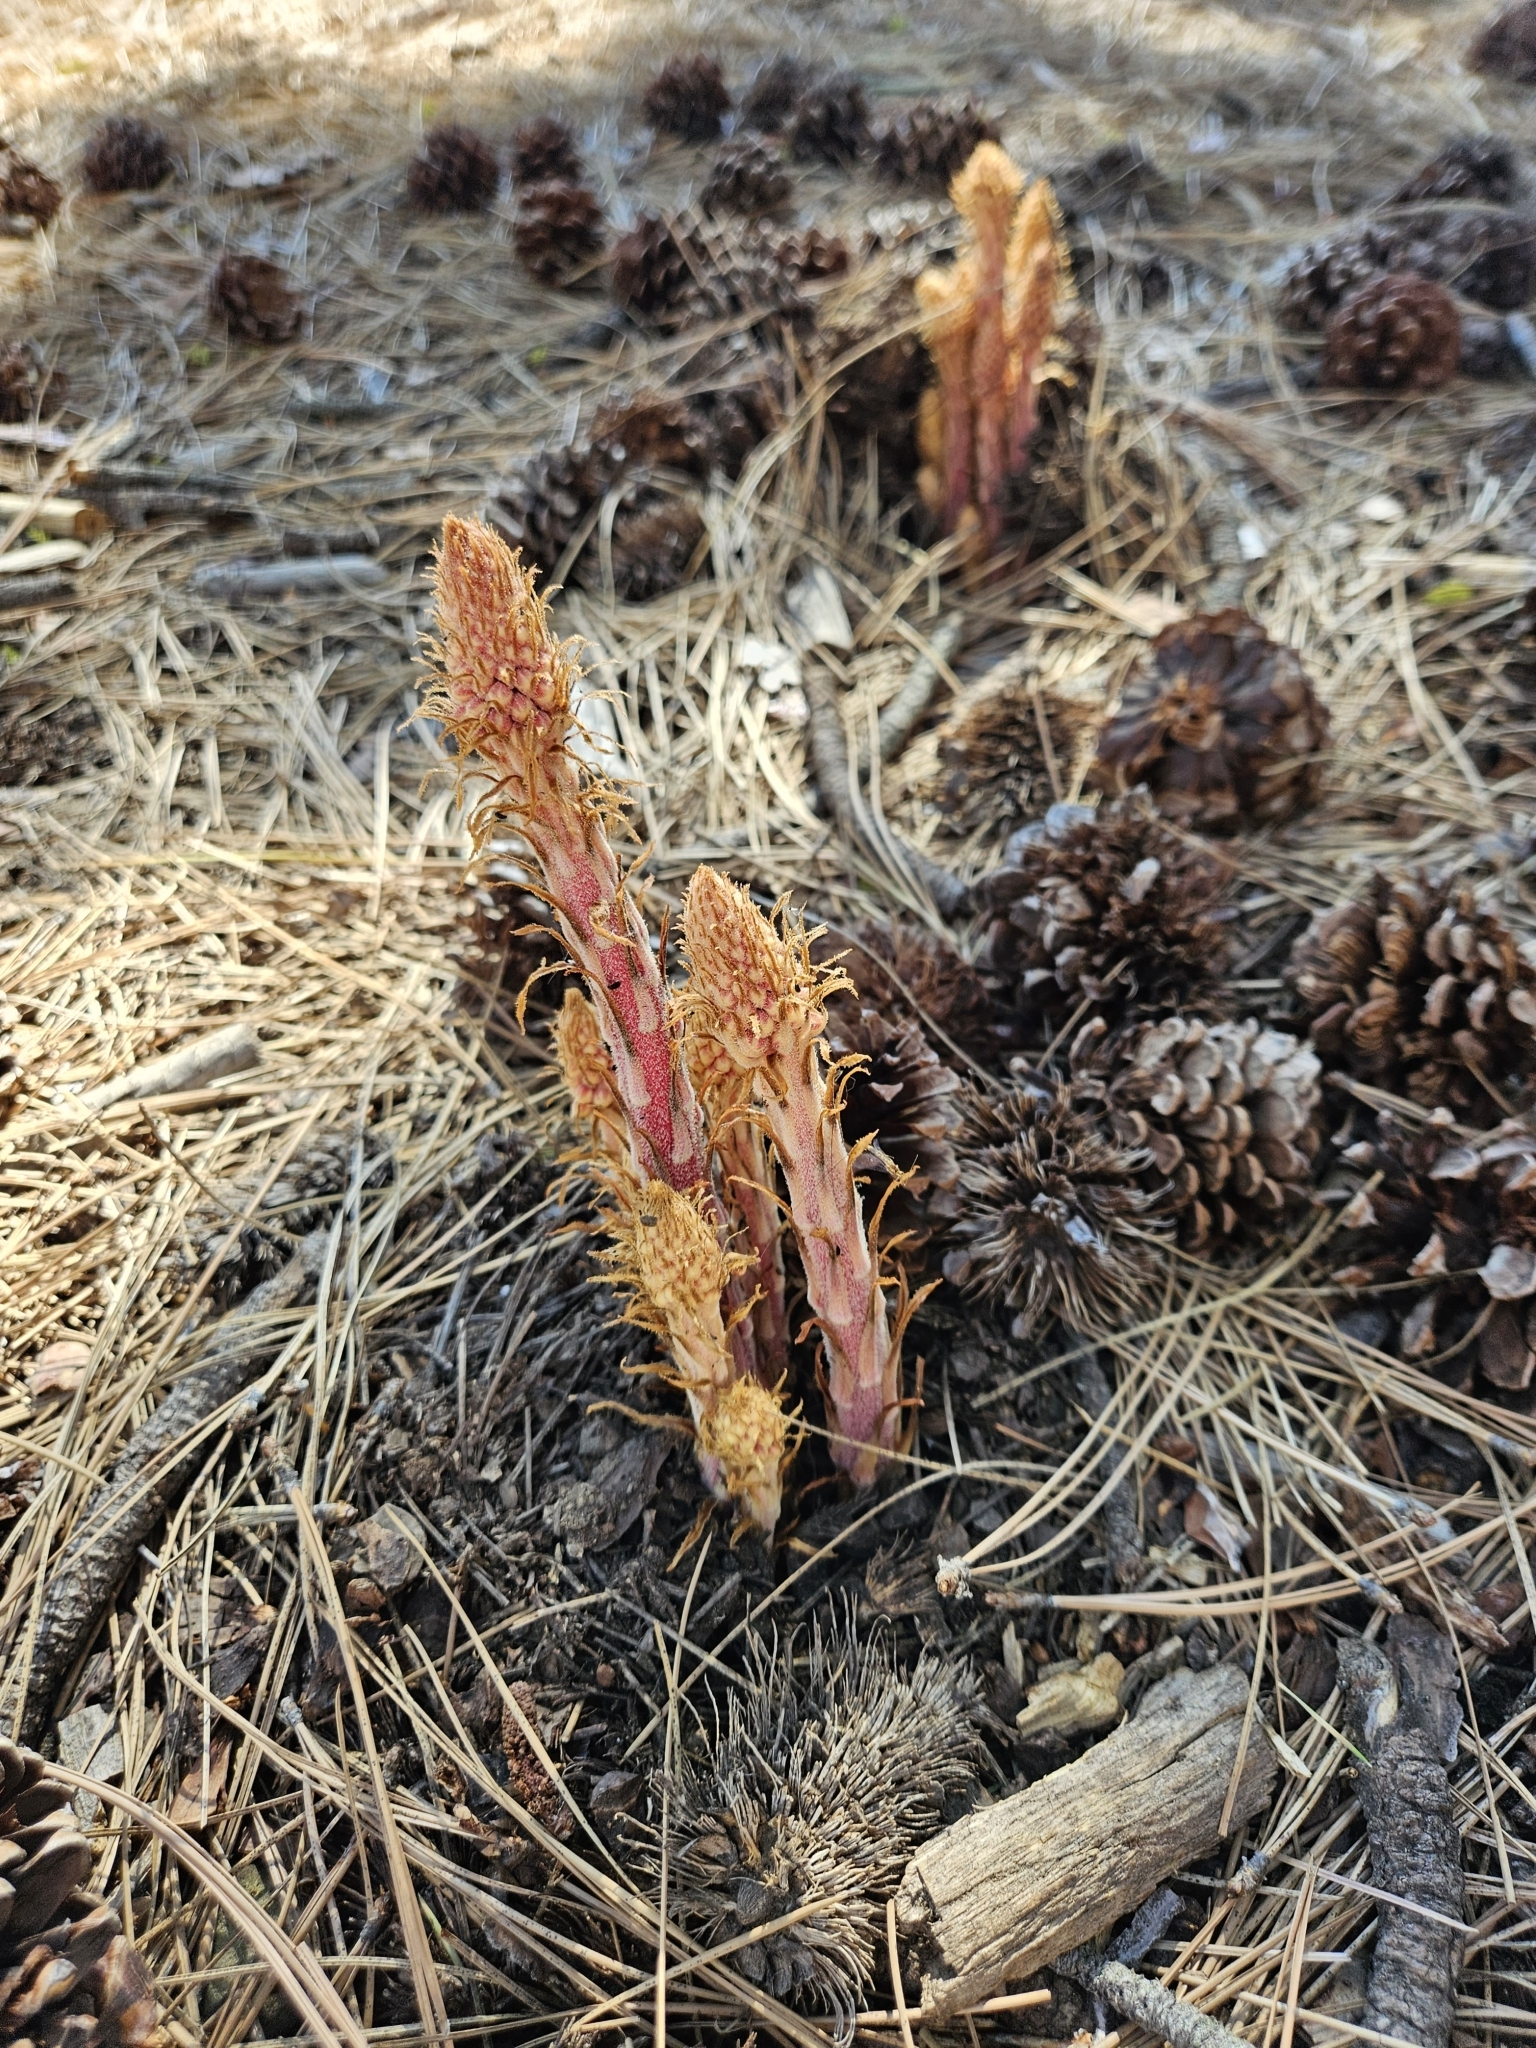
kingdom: Plantae
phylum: Tracheophyta
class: Magnoliopsida
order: Ericales
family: Ericaceae
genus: Pterospora
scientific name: Pterospora andromedea
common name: Giant bird's-nest
